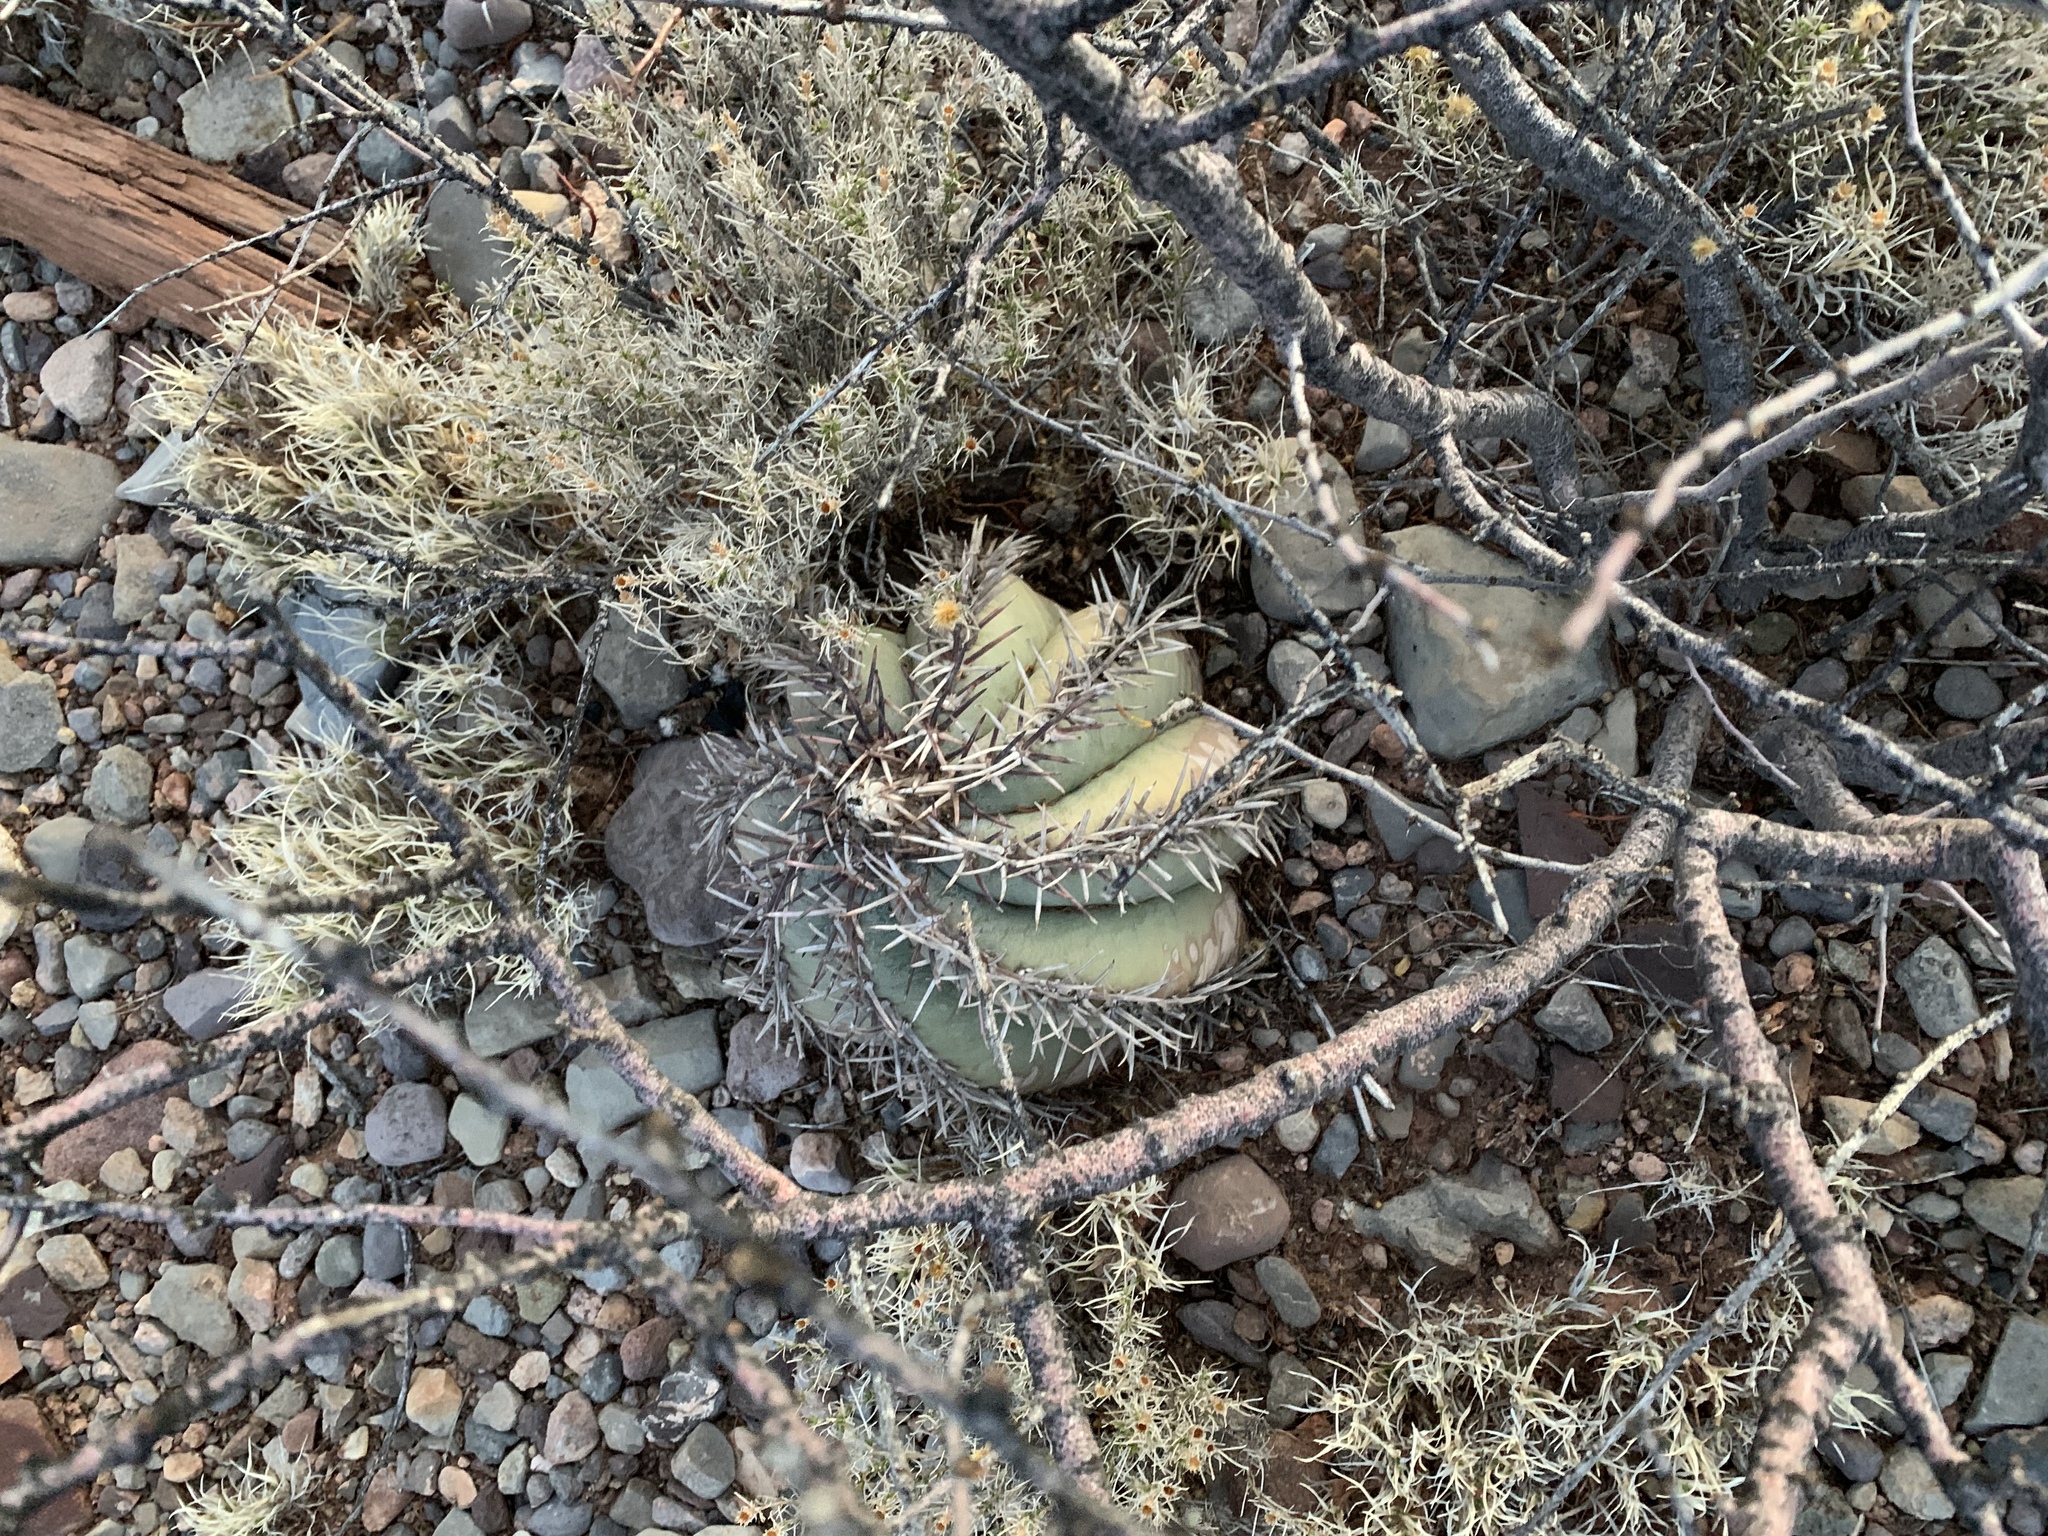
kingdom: Plantae
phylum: Tracheophyta
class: Magnoliopsida
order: Caryophyllales
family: Cactaceae
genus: Echinocactus
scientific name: Echinocactus horizonthalonius
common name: Devilshead
